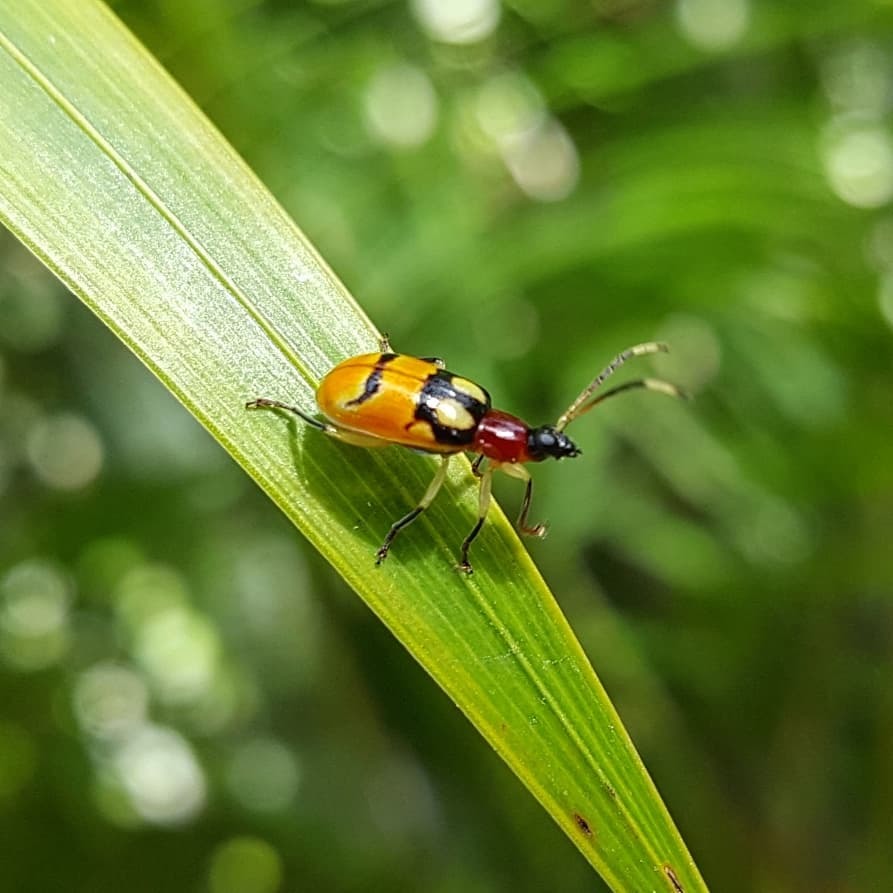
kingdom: Animalia
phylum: Arthropoda
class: Insecta
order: Coleoptera
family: Chrysomelidae
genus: Diabrotica
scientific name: Diabrotica adelpha
